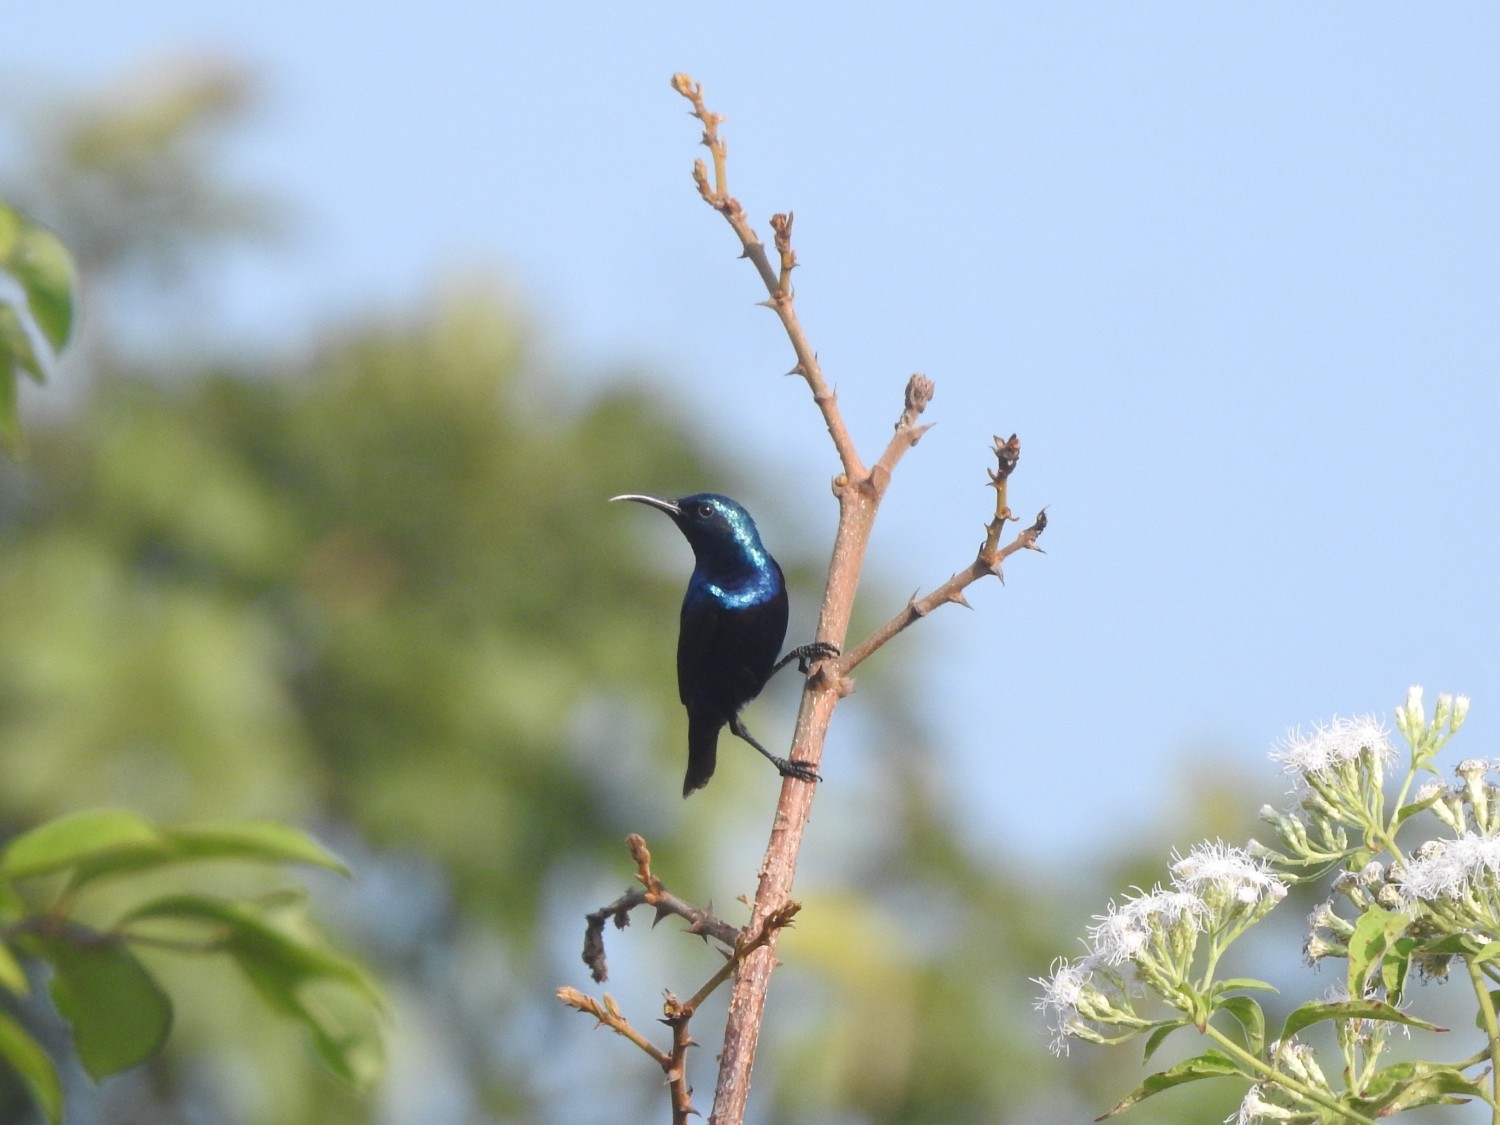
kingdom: Animalia
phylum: Chordata
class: Aves
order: Passeriformes
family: Nectariniidae
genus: Cinnyris
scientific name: Cinnyris asiaticus
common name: Purple sunbird
